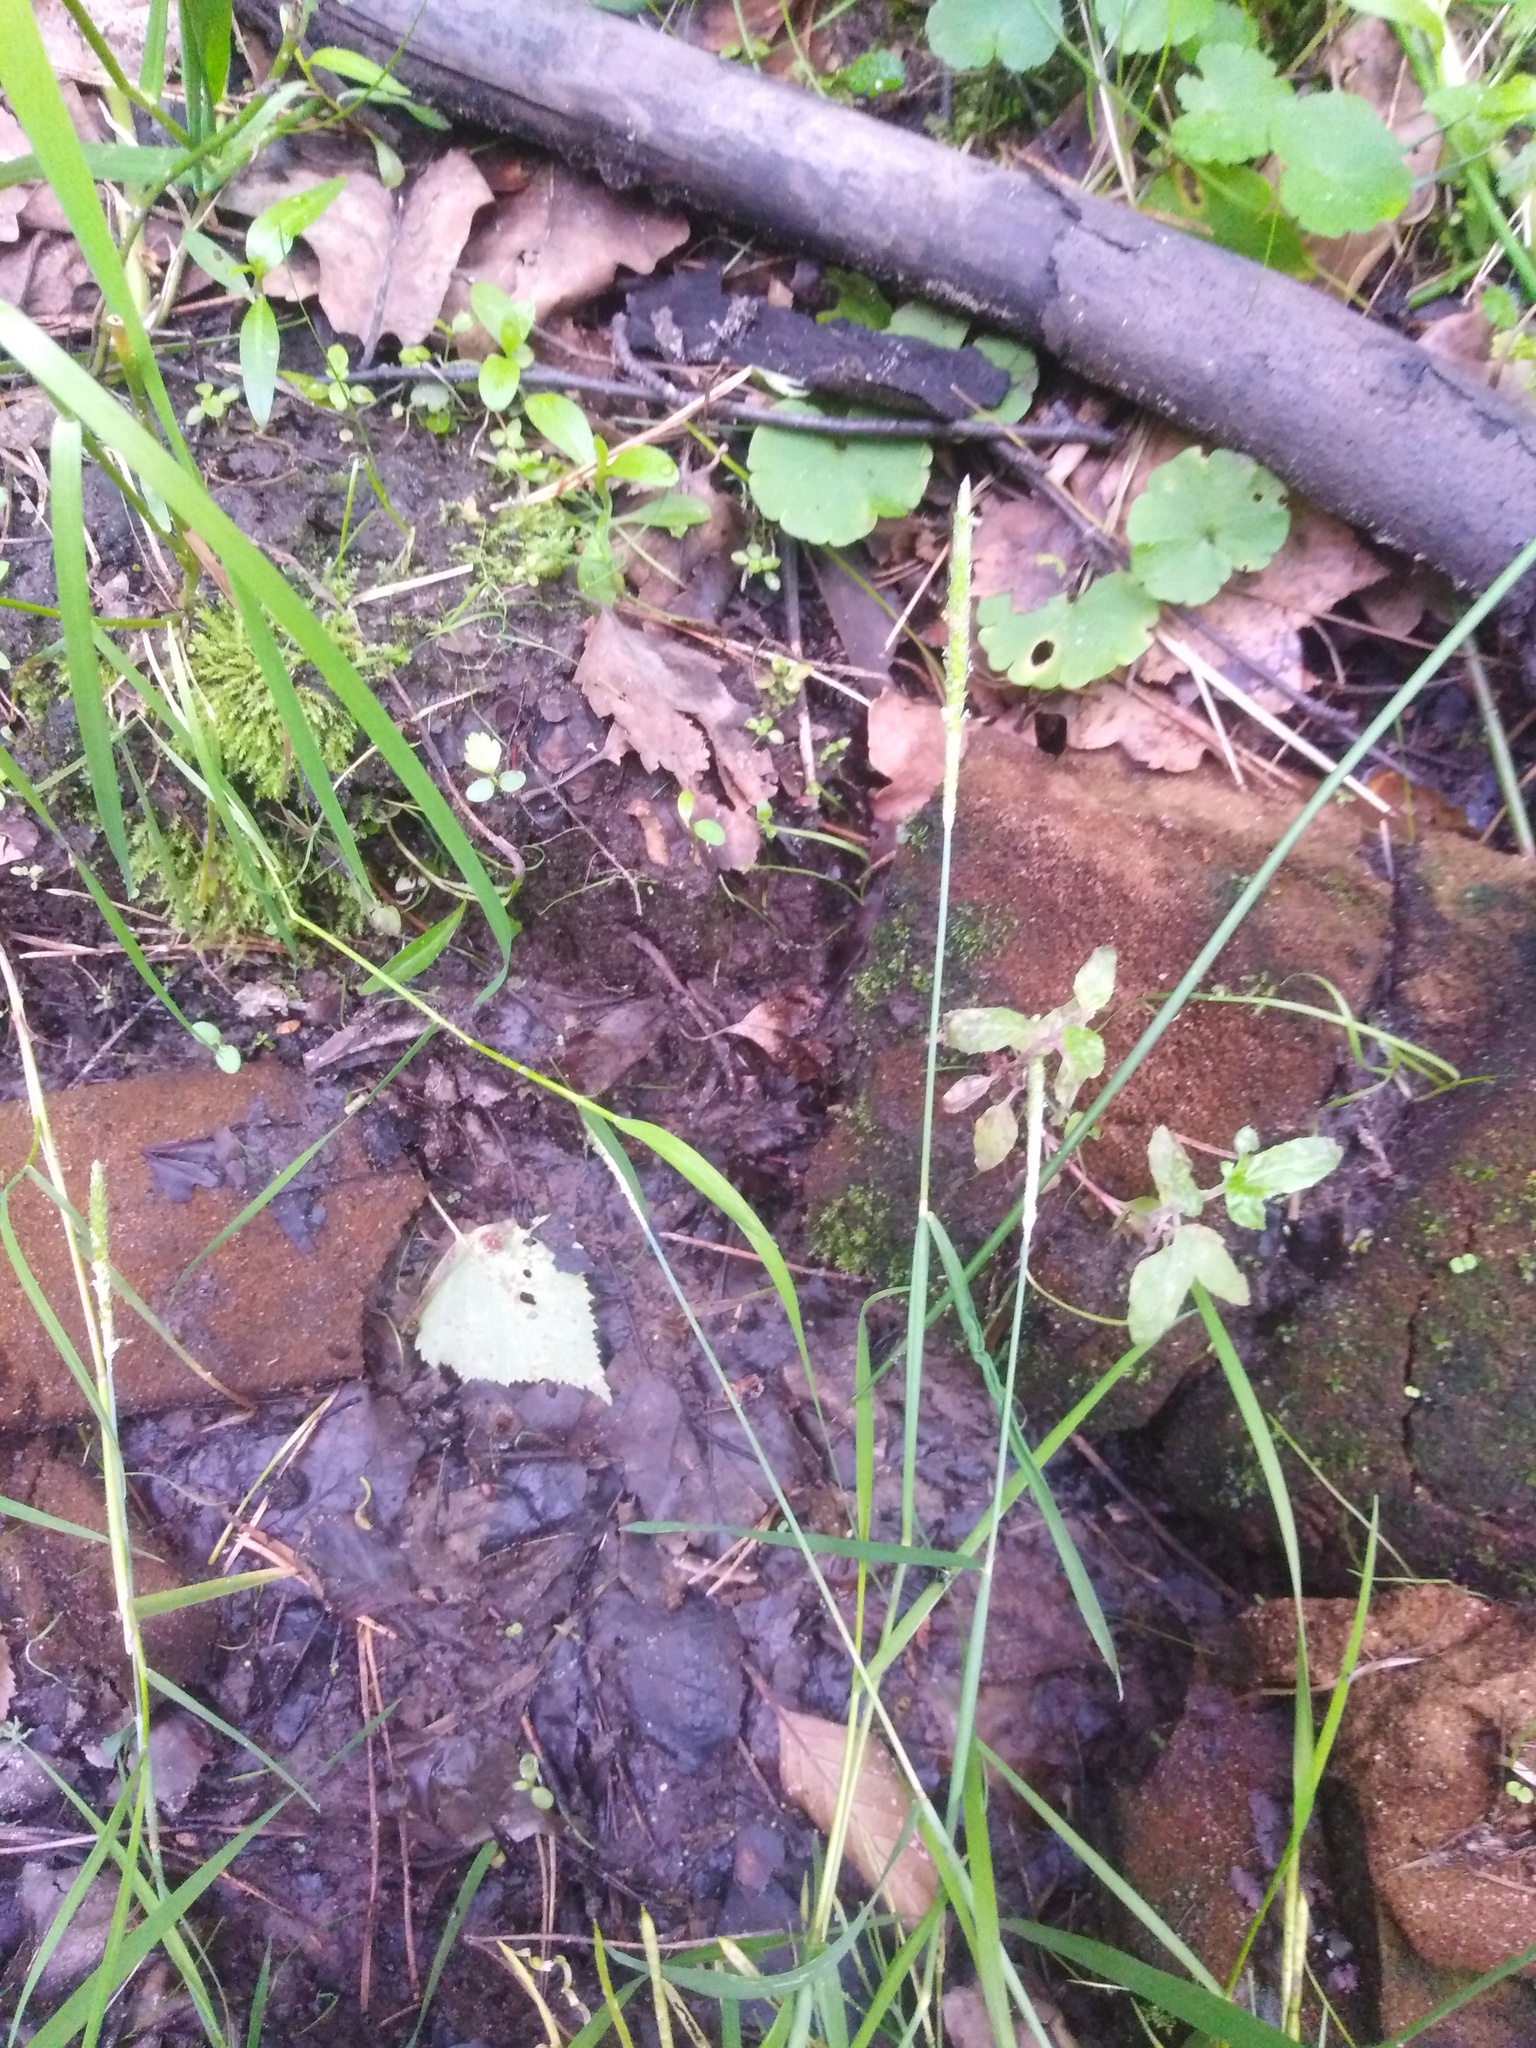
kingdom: Plantae
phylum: Tracheophyta
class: Liliopsida
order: Poales
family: Poaceae
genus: Alopecurus
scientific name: Alopecurus aequalis
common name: Orange foxtail
